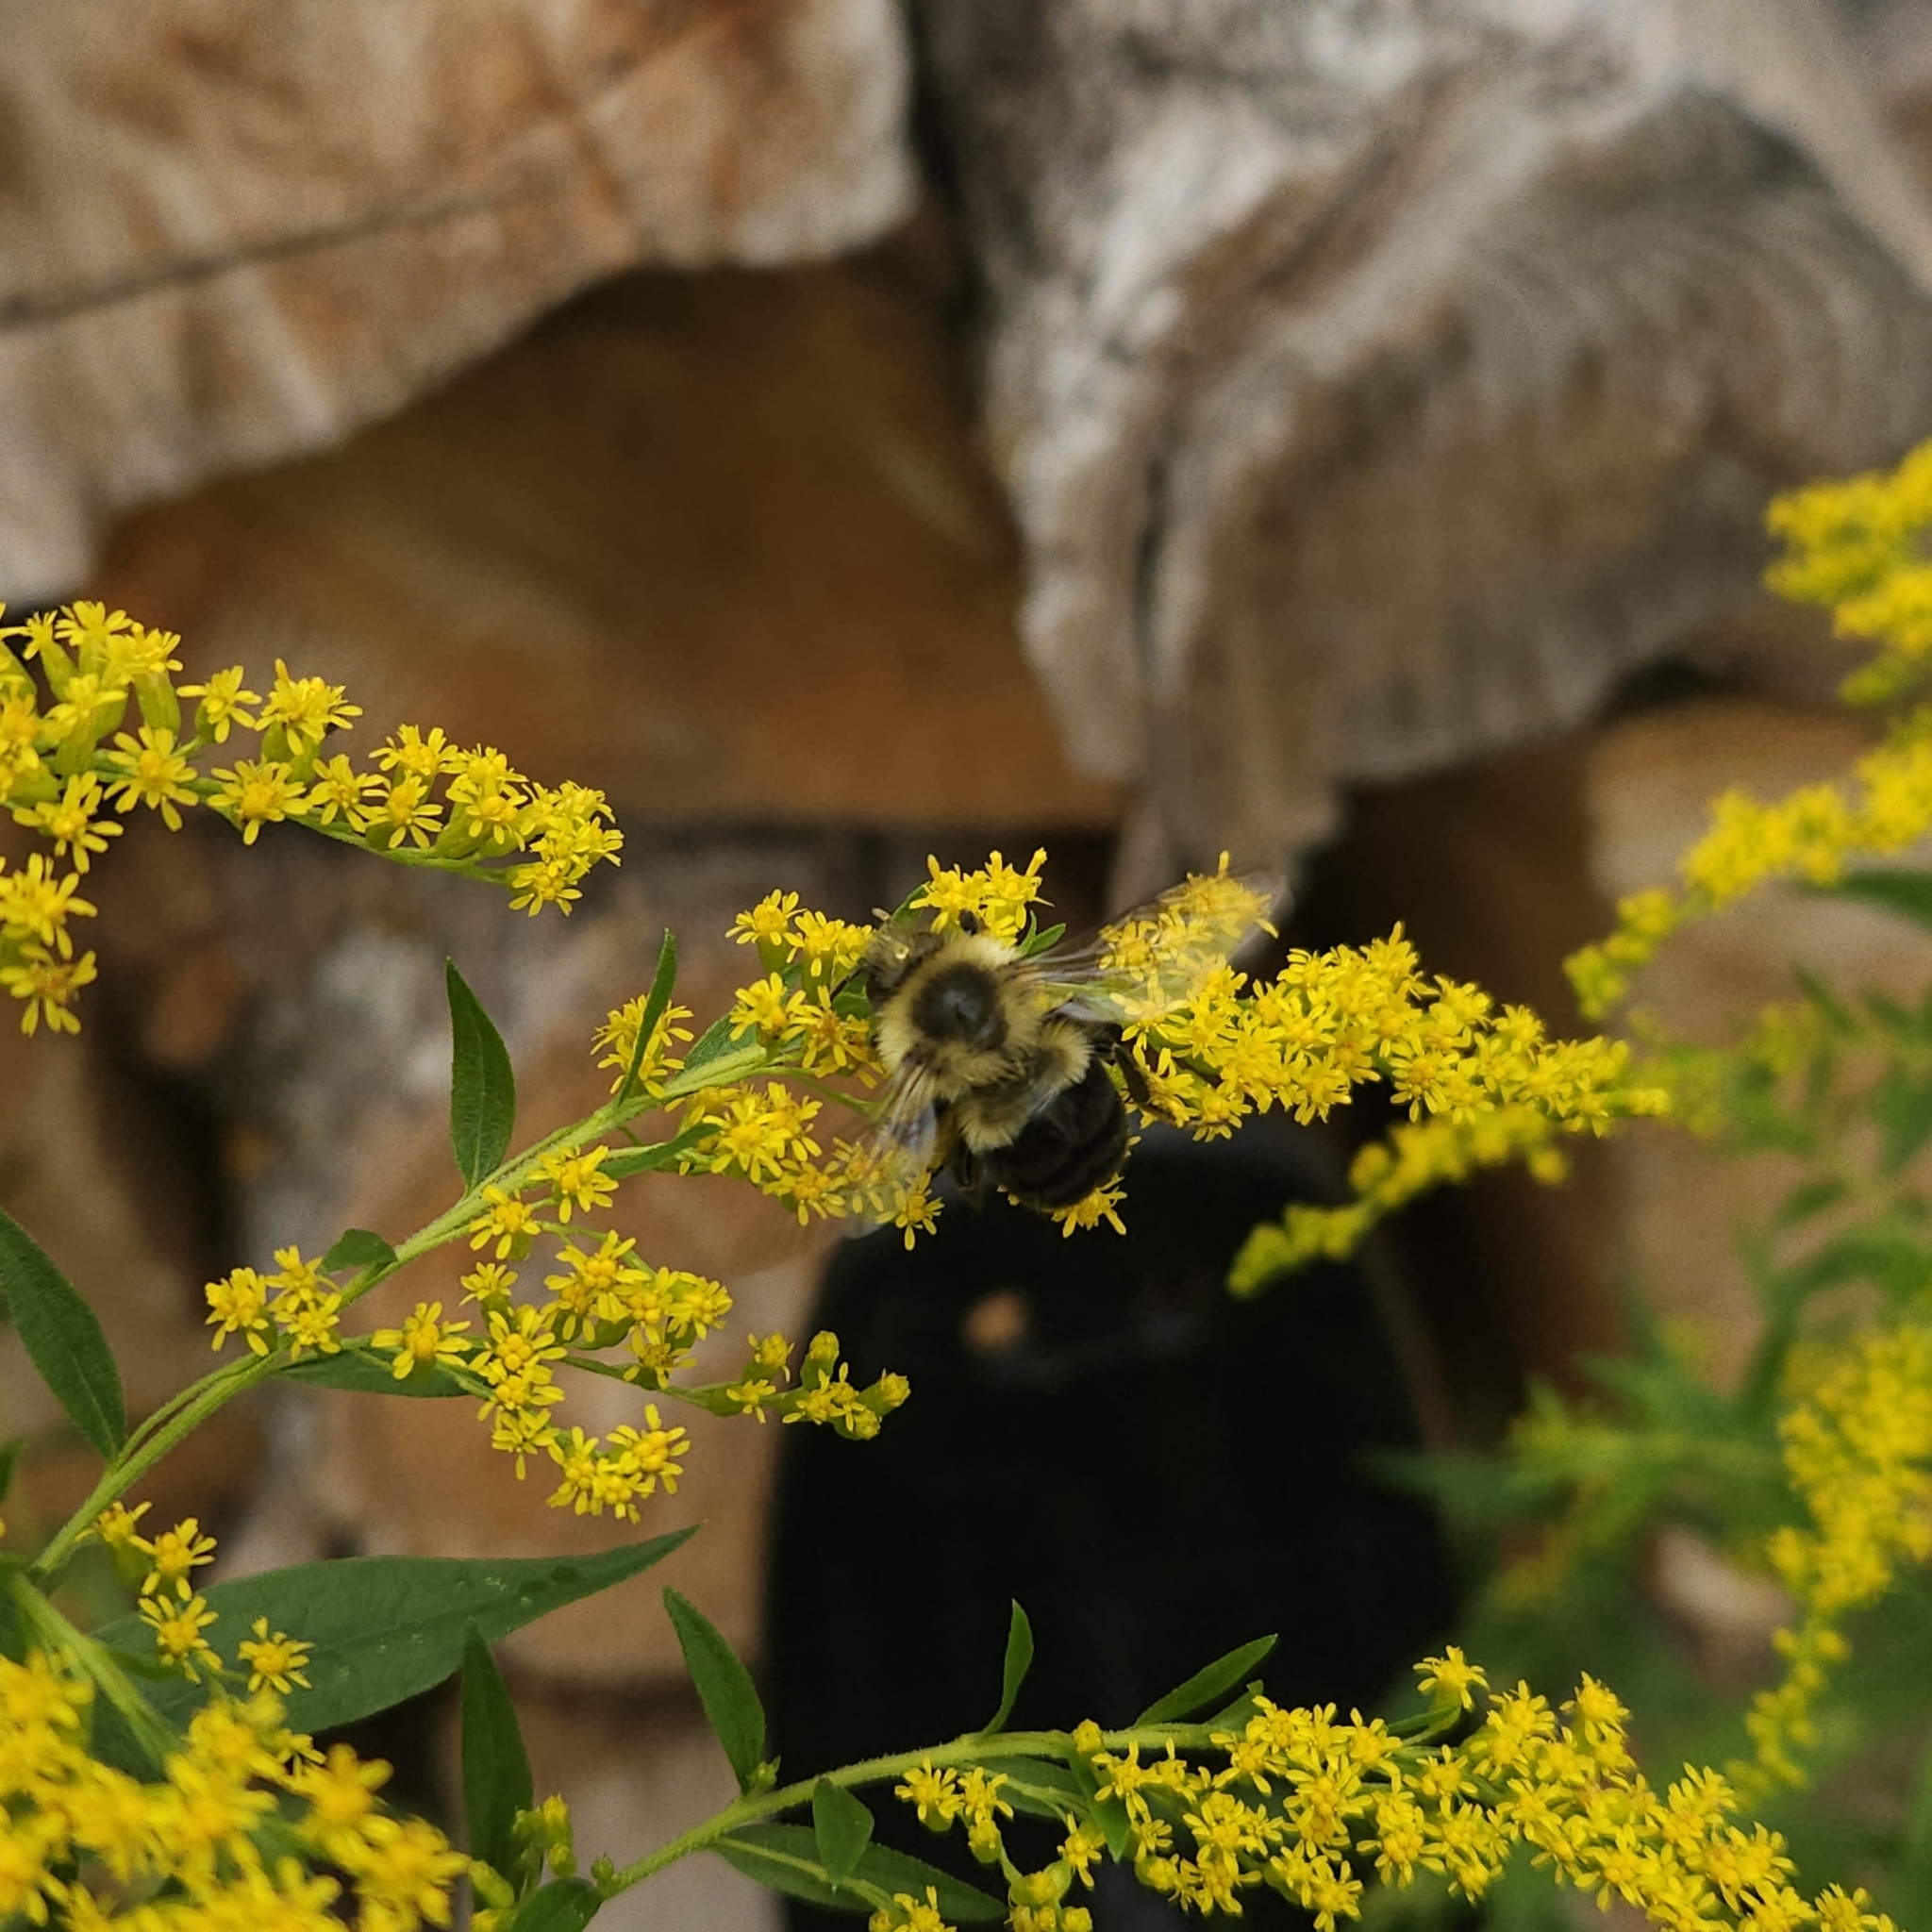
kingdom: Animalia
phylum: Arthropoda
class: Insecta
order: Hymenoptera
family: Apidae
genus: Bombus
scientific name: Bombus impatiens
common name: Common eastern bumble bee
